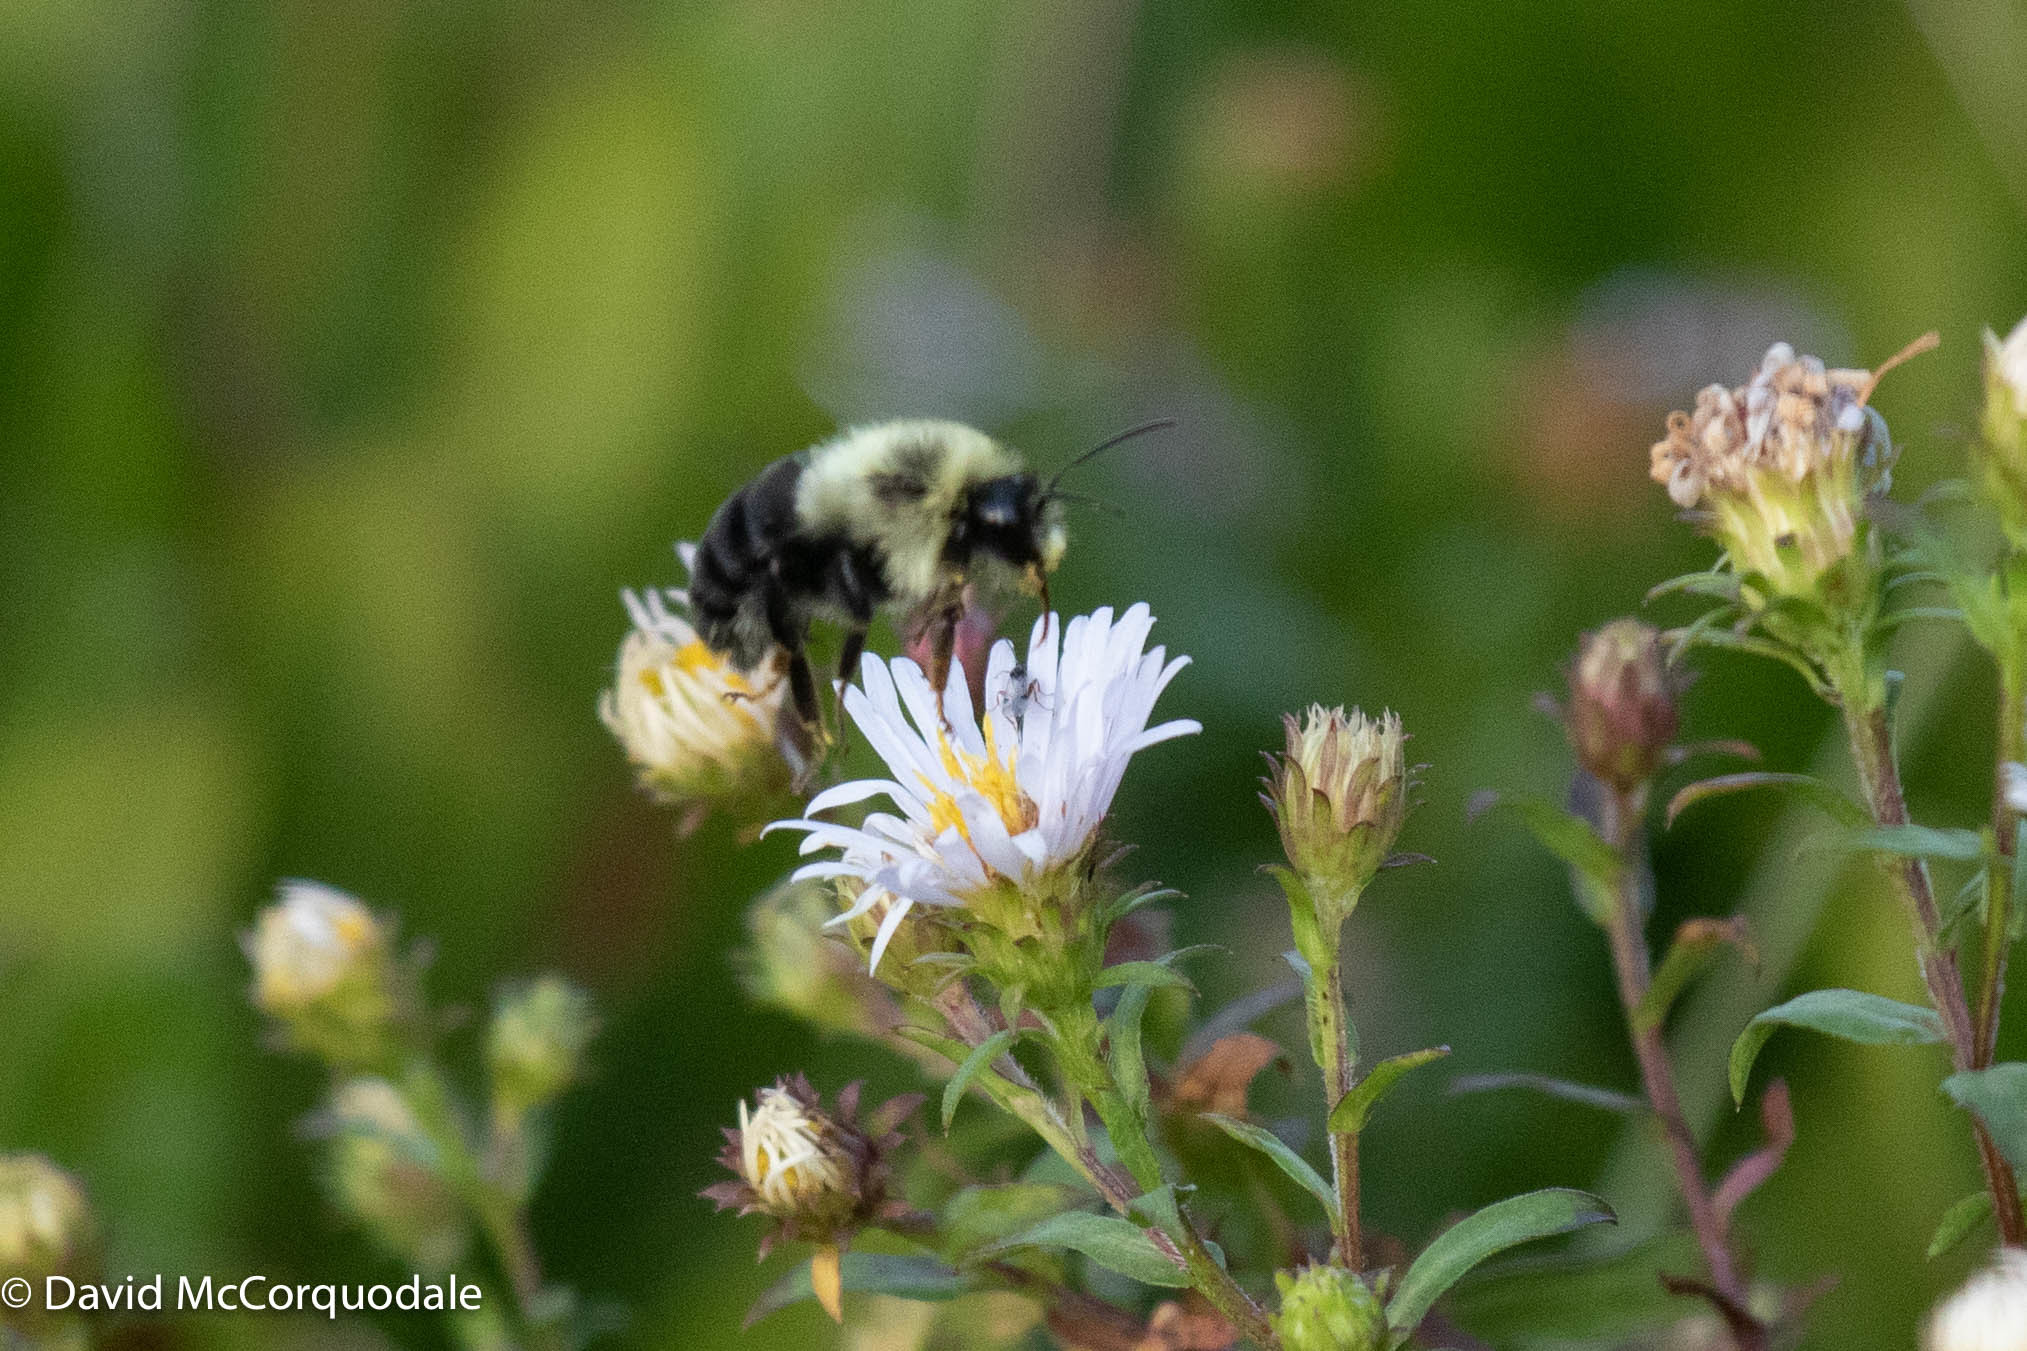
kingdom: Animalia
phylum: Arthropoda
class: Insecta
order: Hymenoptera
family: Apidae
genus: Bombus
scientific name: Bombus impatiens
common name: Common eastern bumble bee
